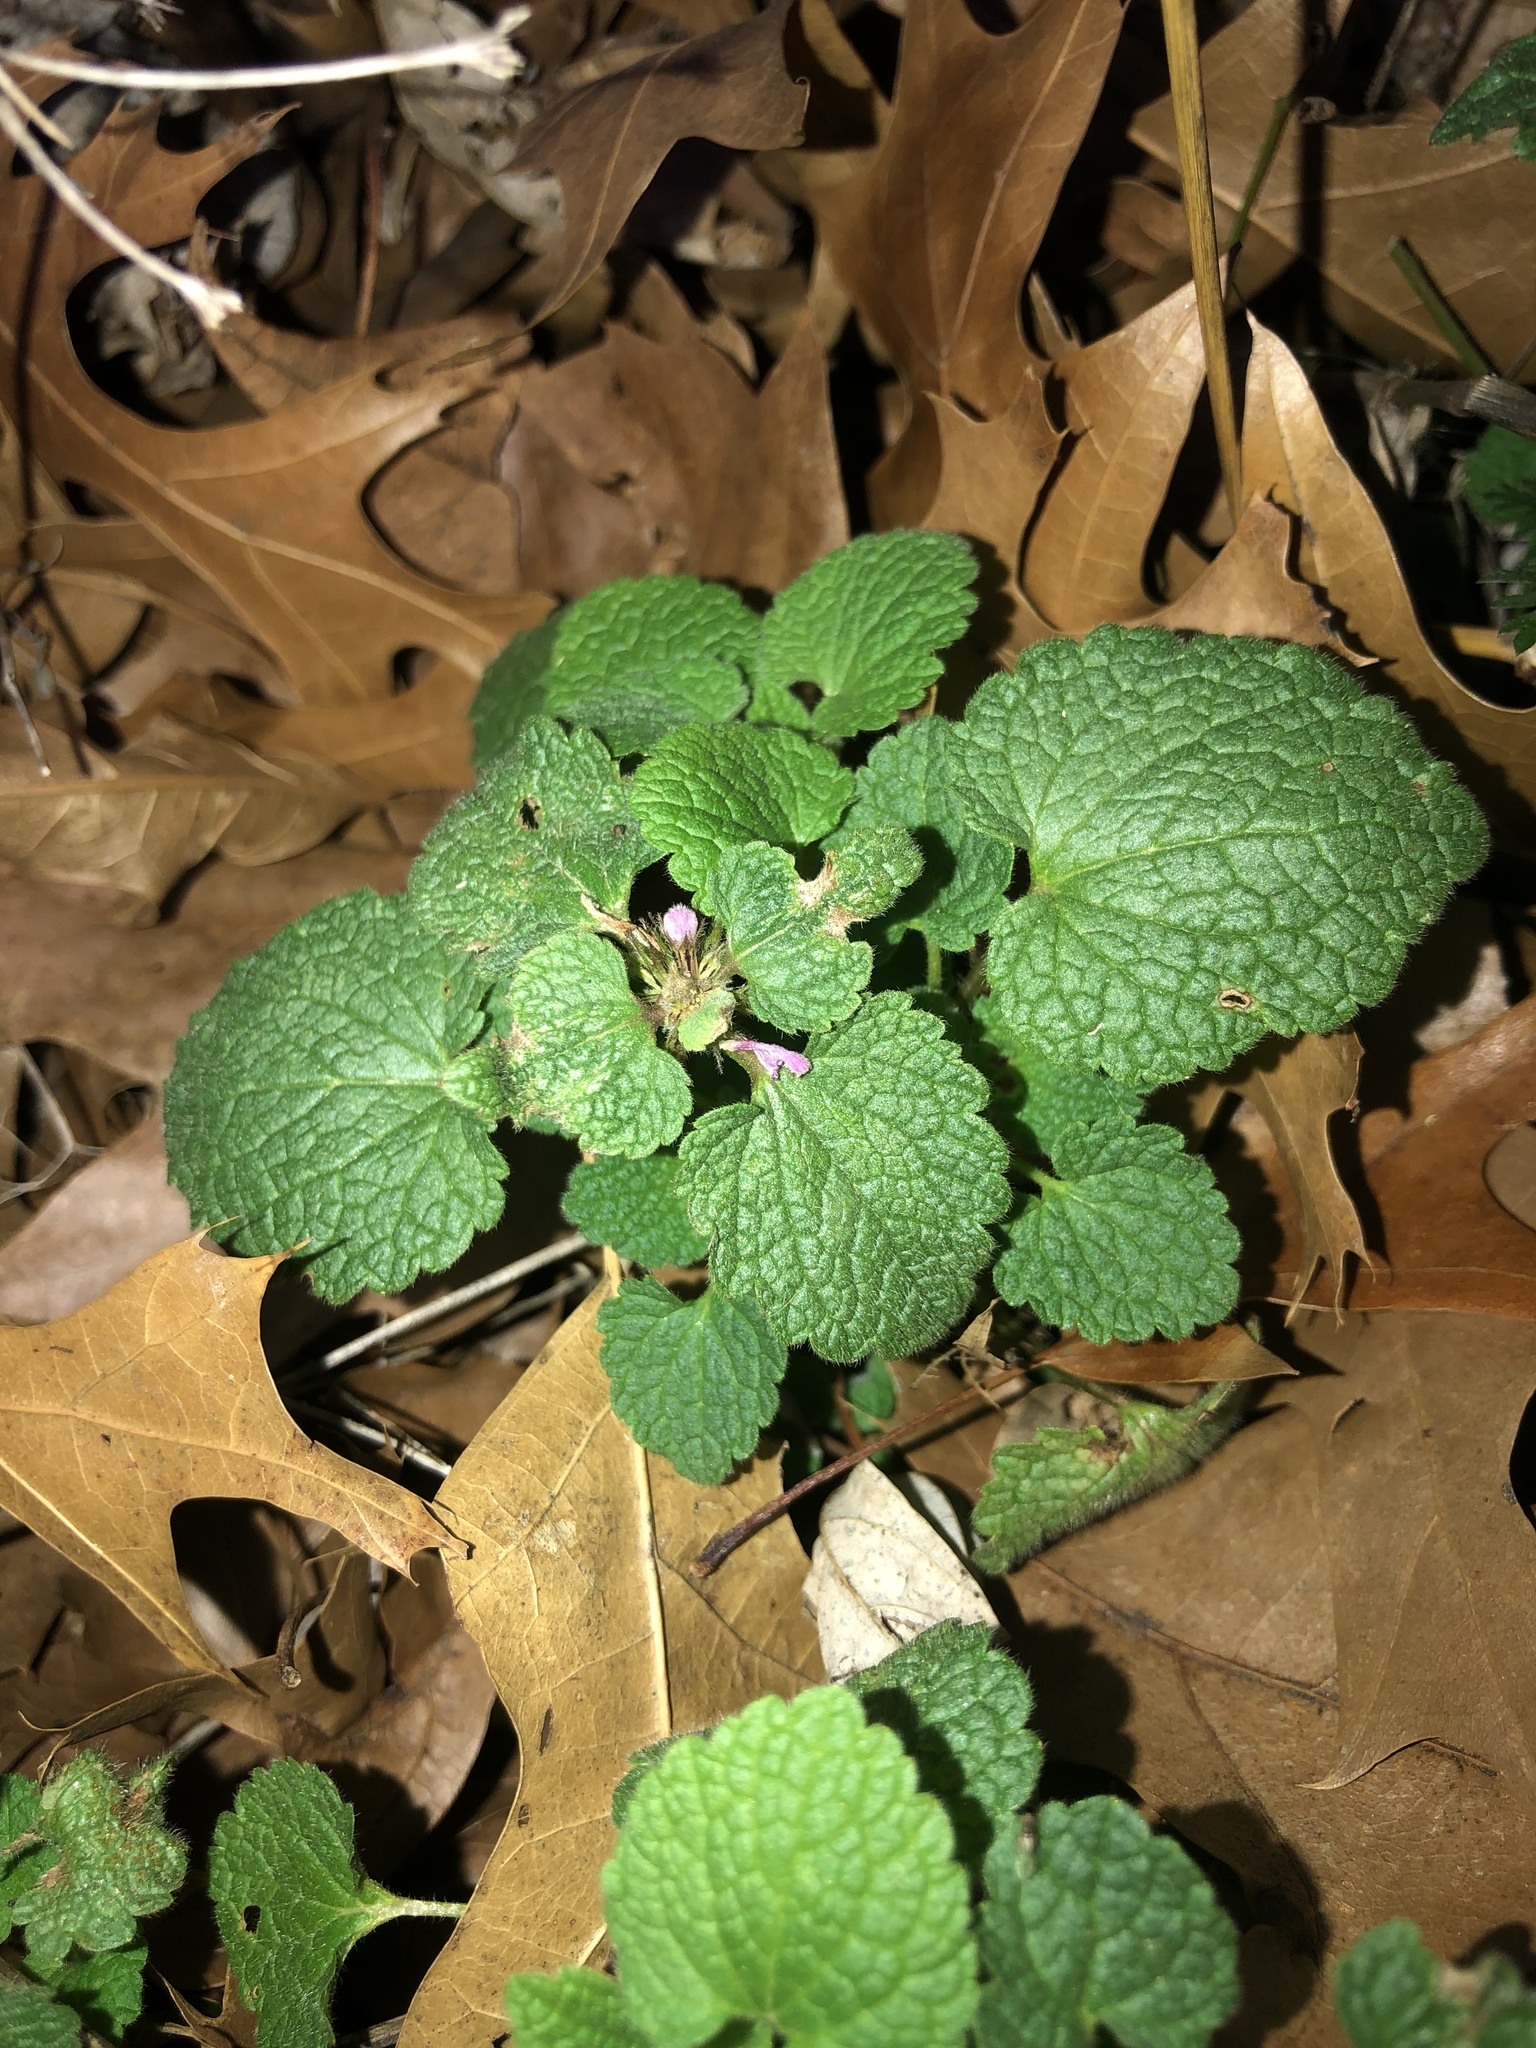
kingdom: Plantae
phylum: Tracheophyta
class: Magnoliopsida
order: Lamiales
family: Lamiaceae
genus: Lamium
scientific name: Lamium purpureum
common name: Red dead-nettle
